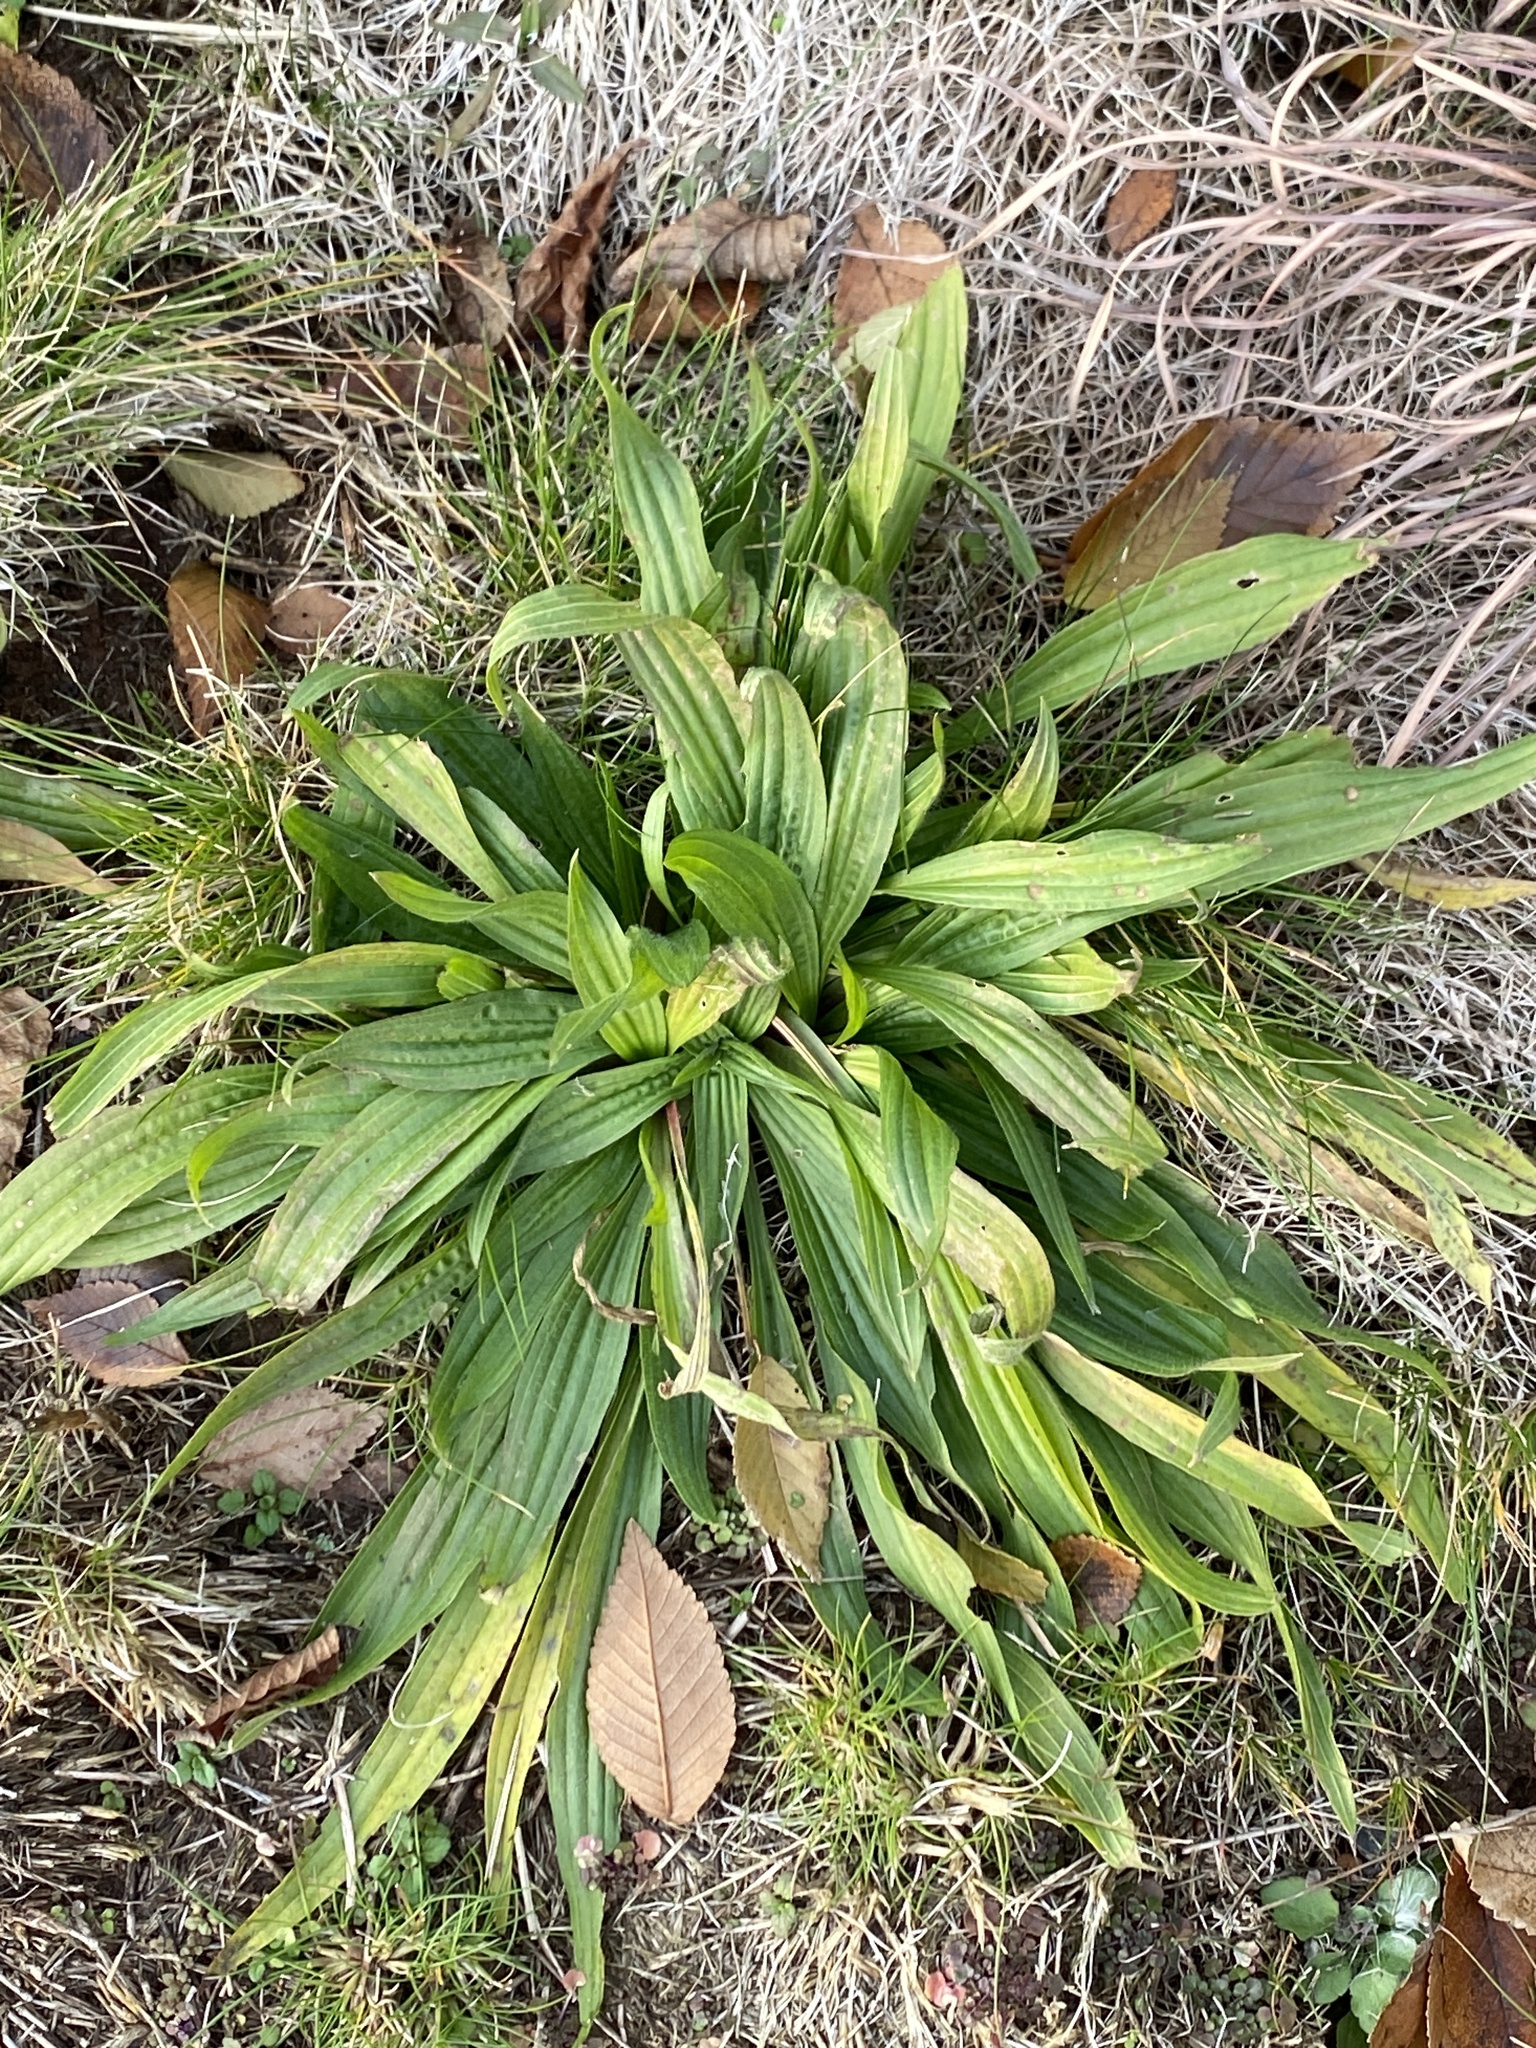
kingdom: Plantae
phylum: Tracheophyta
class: Magnoliopsida
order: Lamiales
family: Plantaginaceae
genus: Plantago
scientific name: Plantago lanceolata
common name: Ribwort plantain
